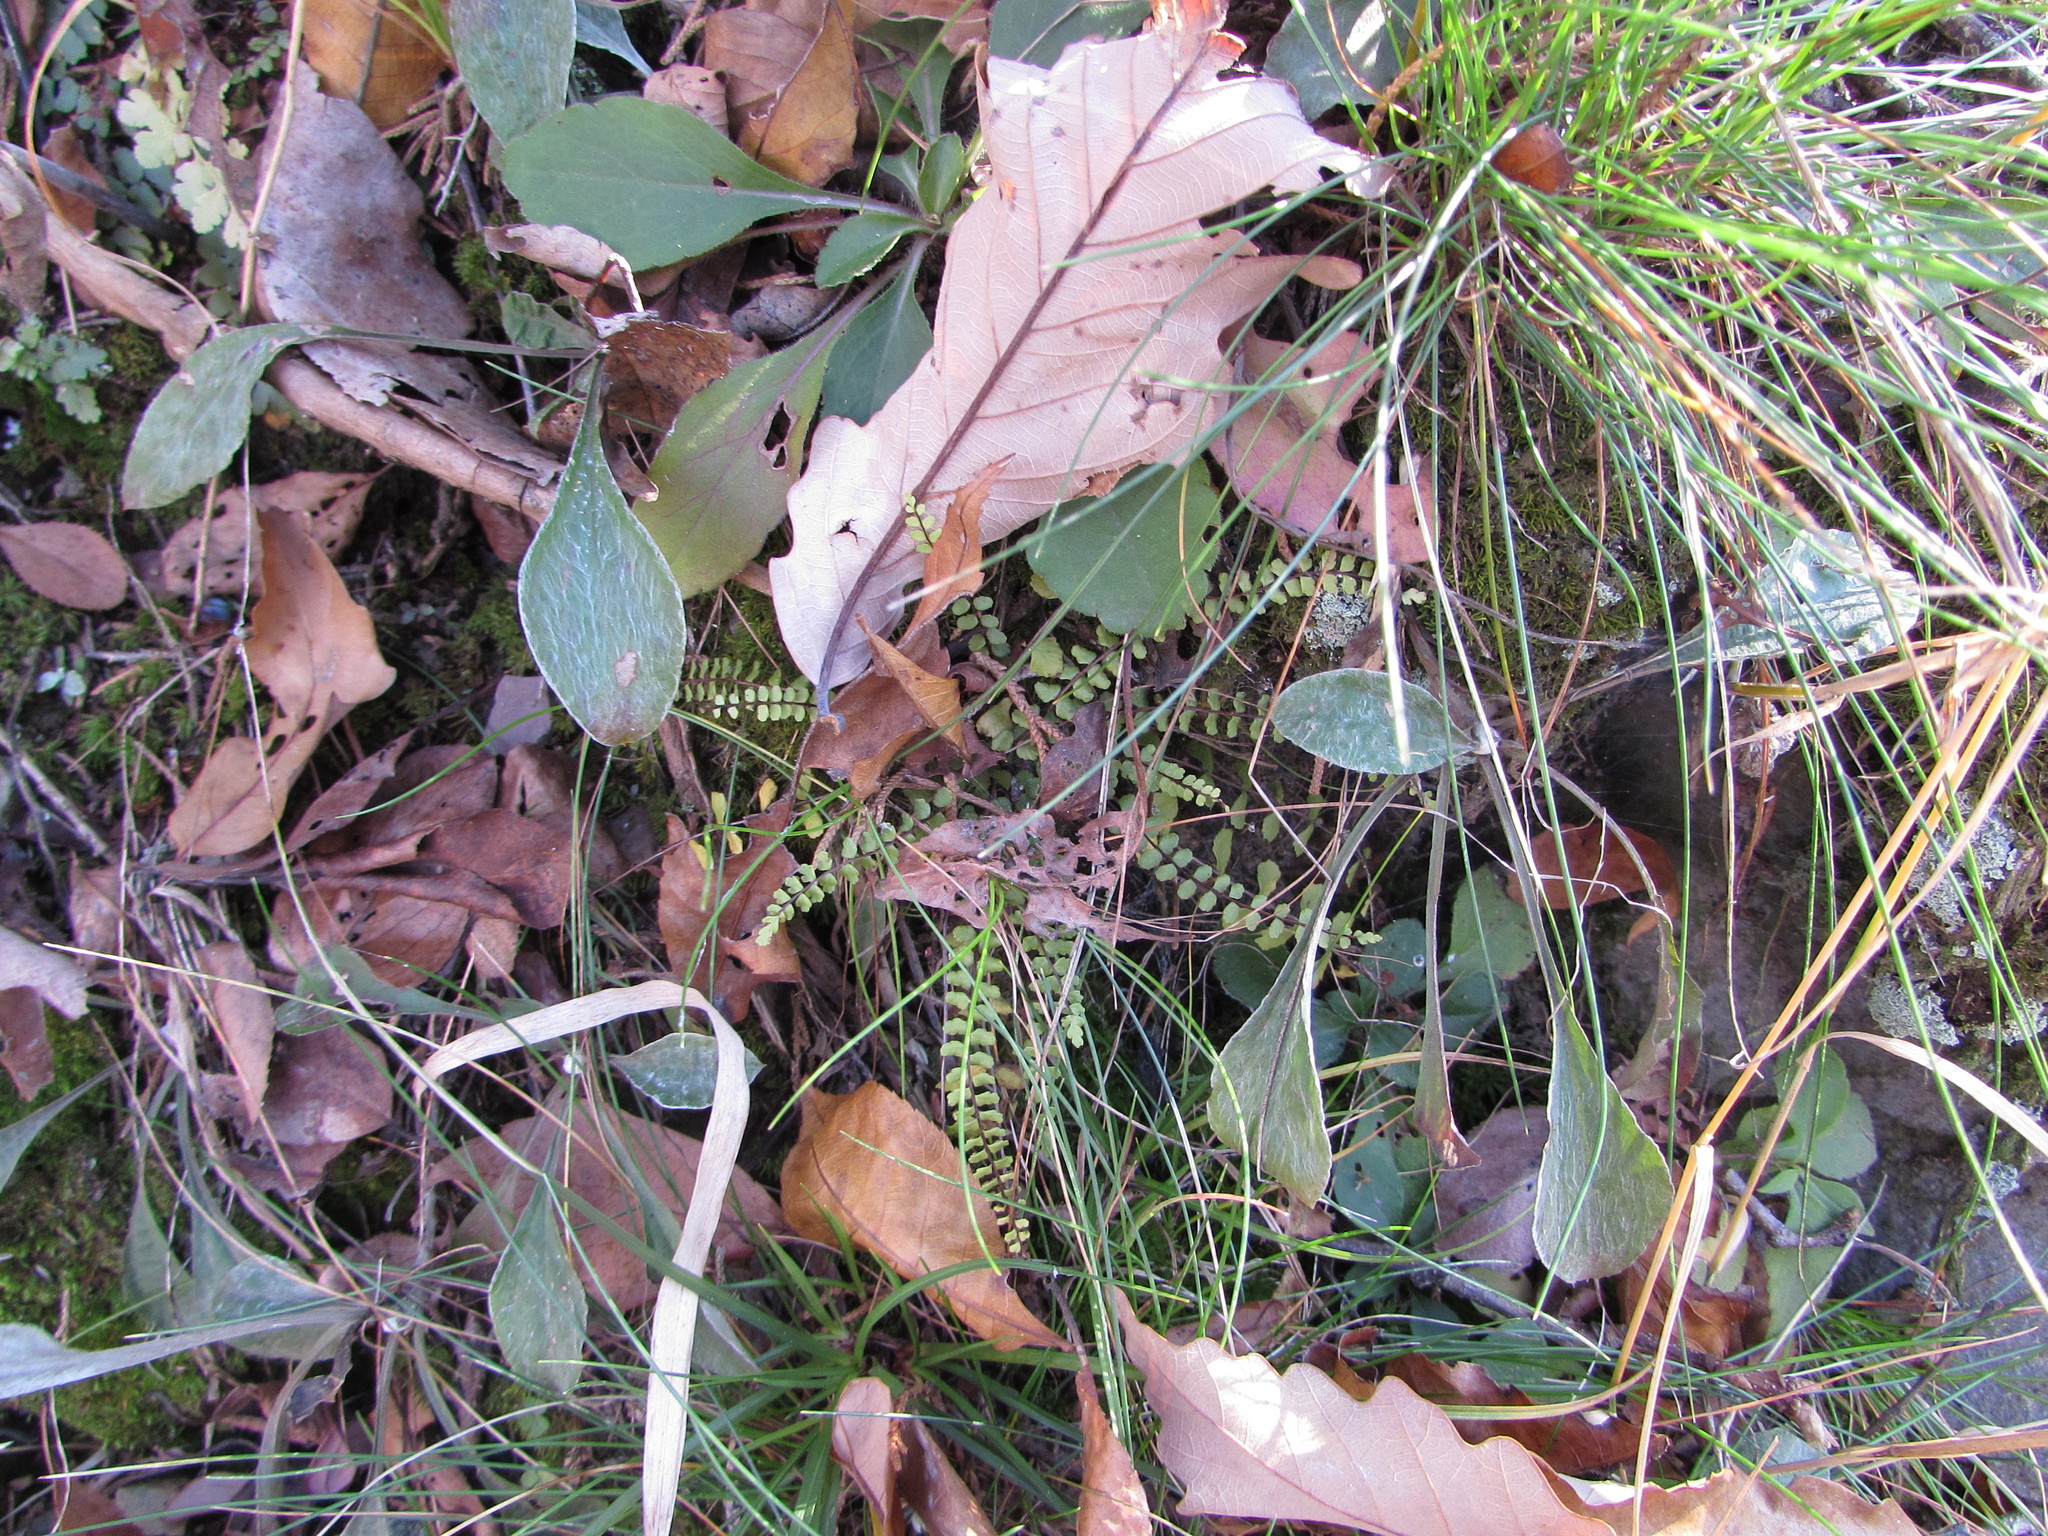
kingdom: Plantae
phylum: Tracheophyta
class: Polypodiopsida
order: Polypodiales
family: Aspleniaceae
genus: Asplenium
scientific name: Asplenium trichomanes
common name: Maidenhair spleenwort
